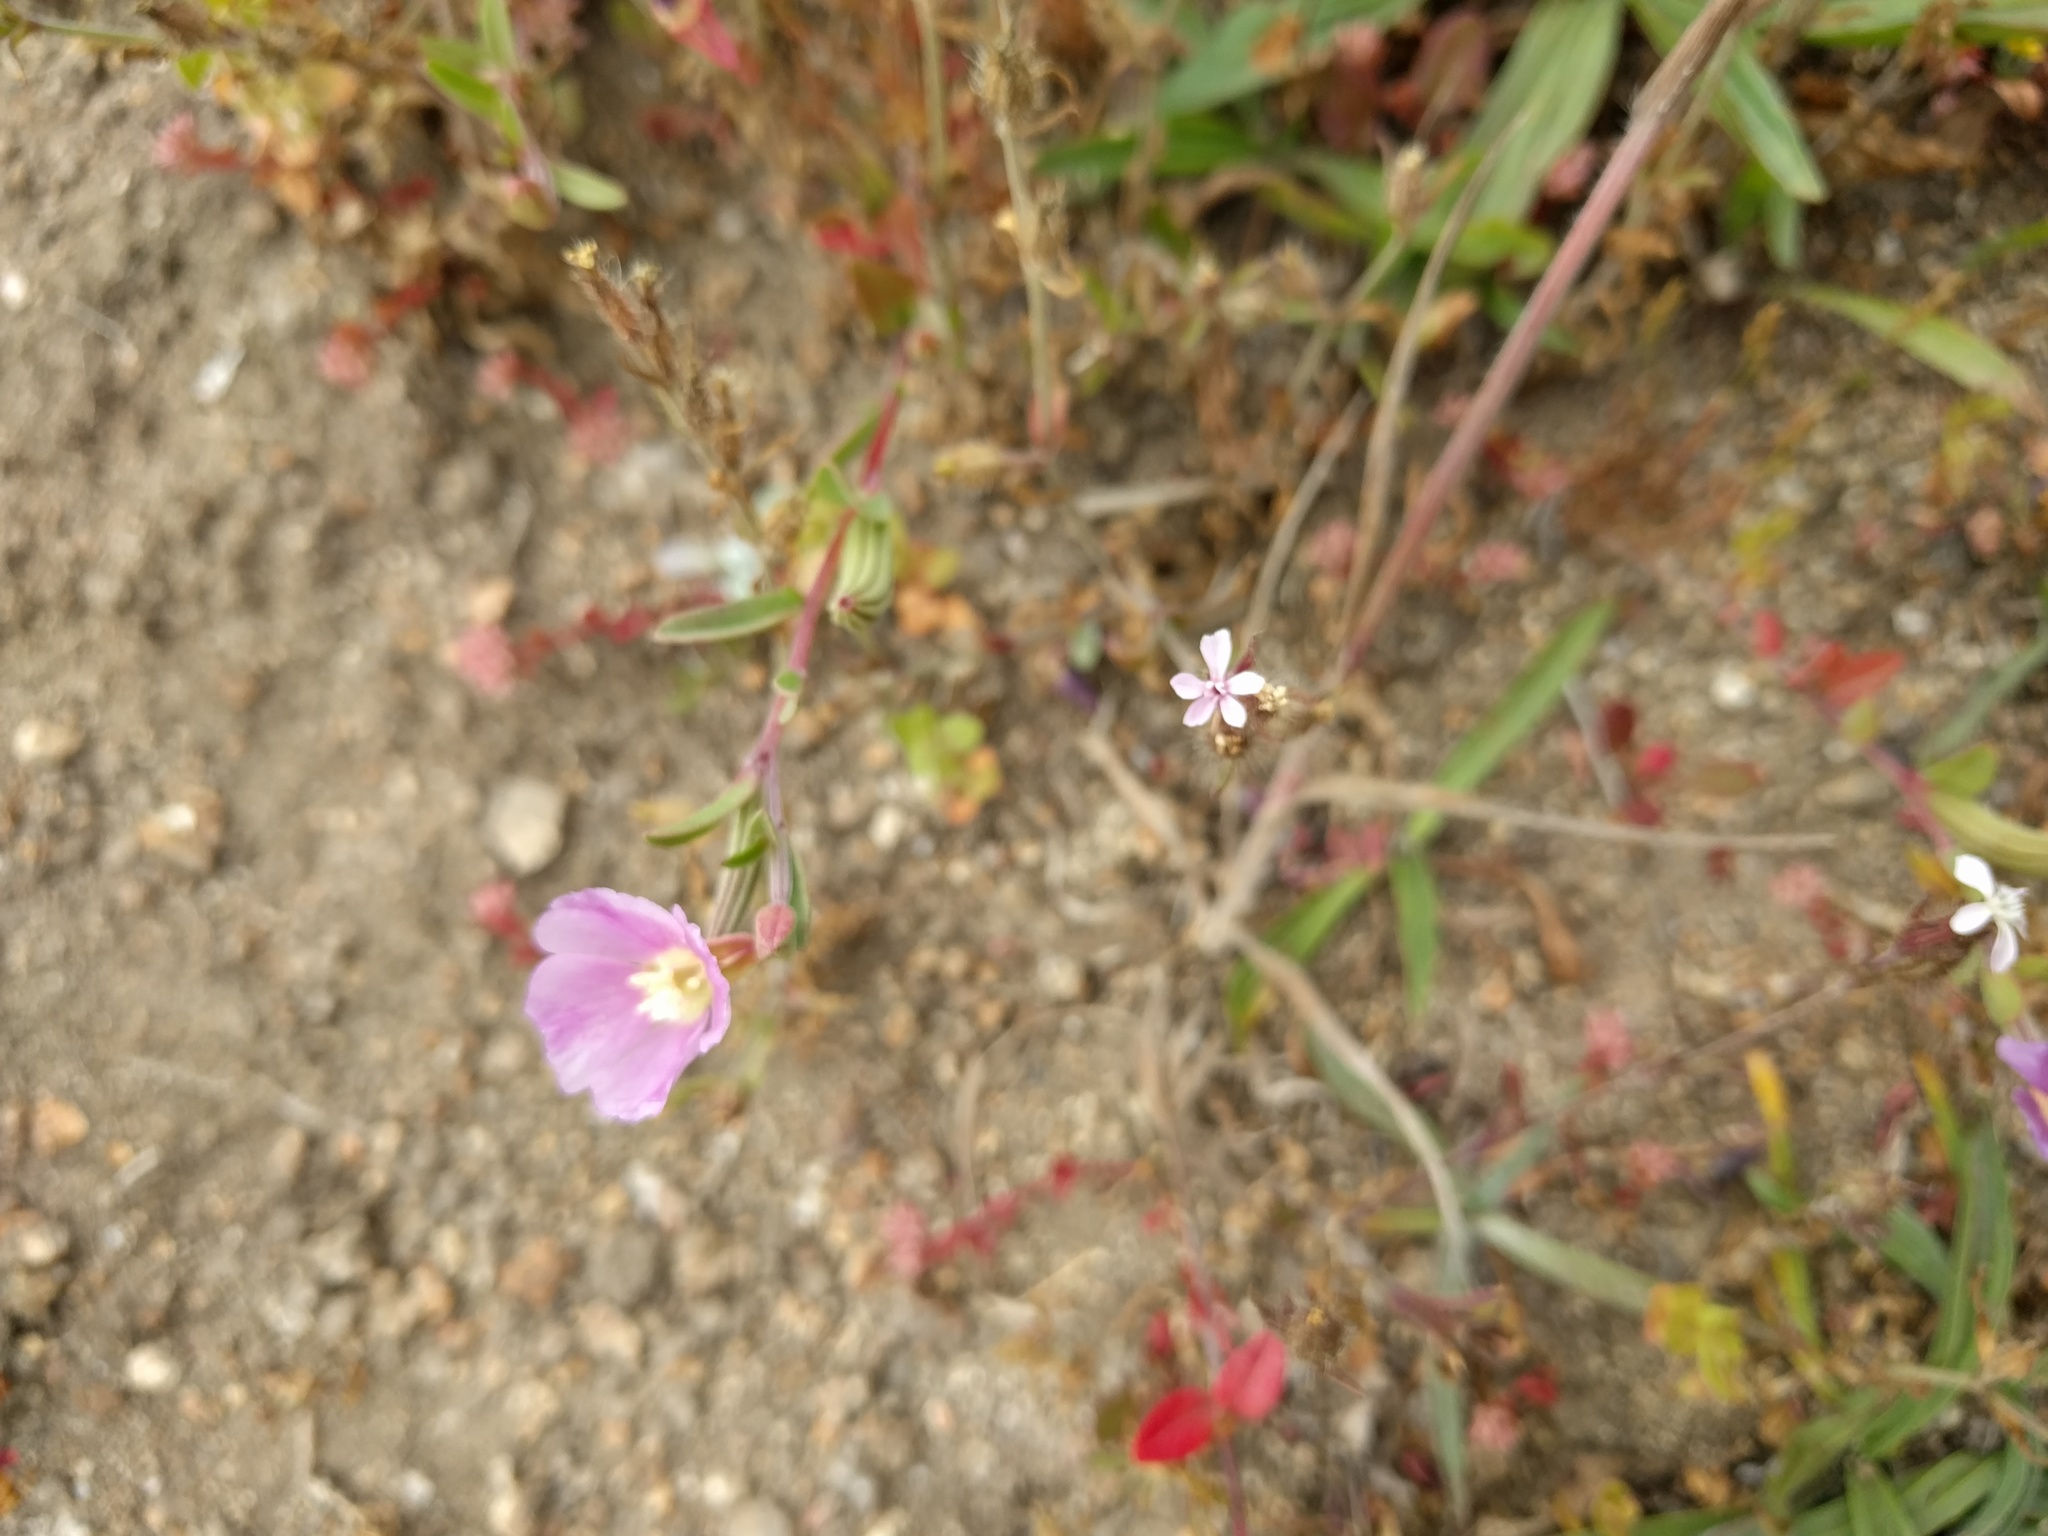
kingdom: Plantae
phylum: Tracheophyta
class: Magnoliopsida
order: Myrtales
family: Onagraceae
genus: Clarkia
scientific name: Clarkia davyi
